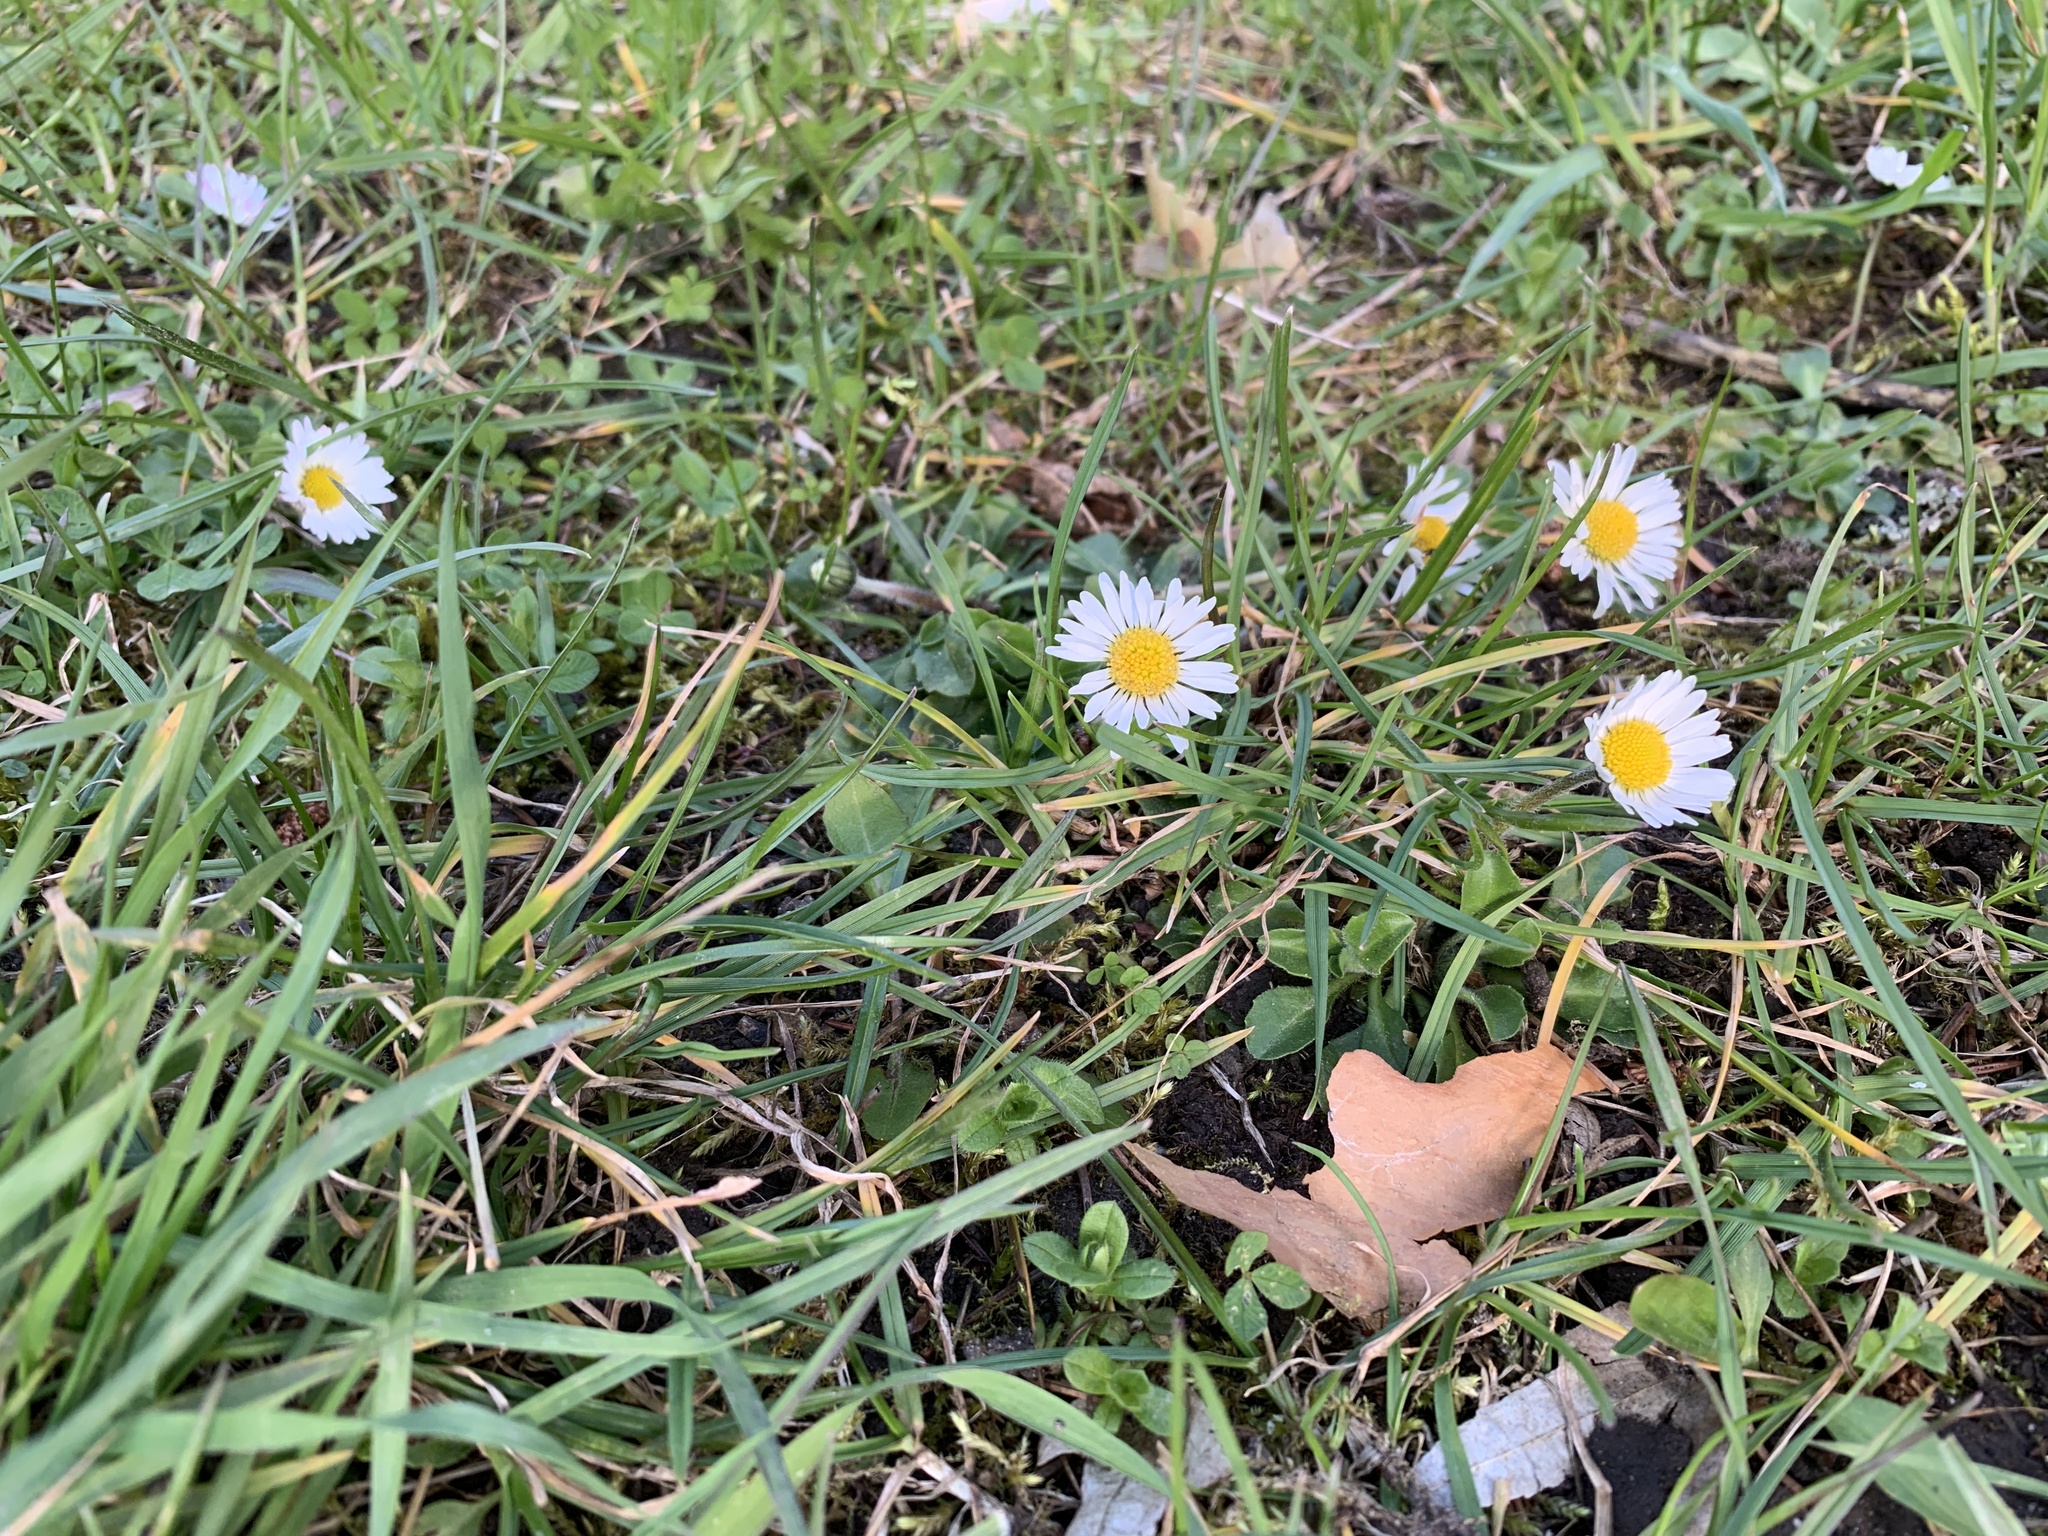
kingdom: Plantae
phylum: Tracheophyta
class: Magnoliopsida
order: Asterales
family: Asteraceae
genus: Bellis
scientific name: Bellis perennis
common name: Lawndaisy
